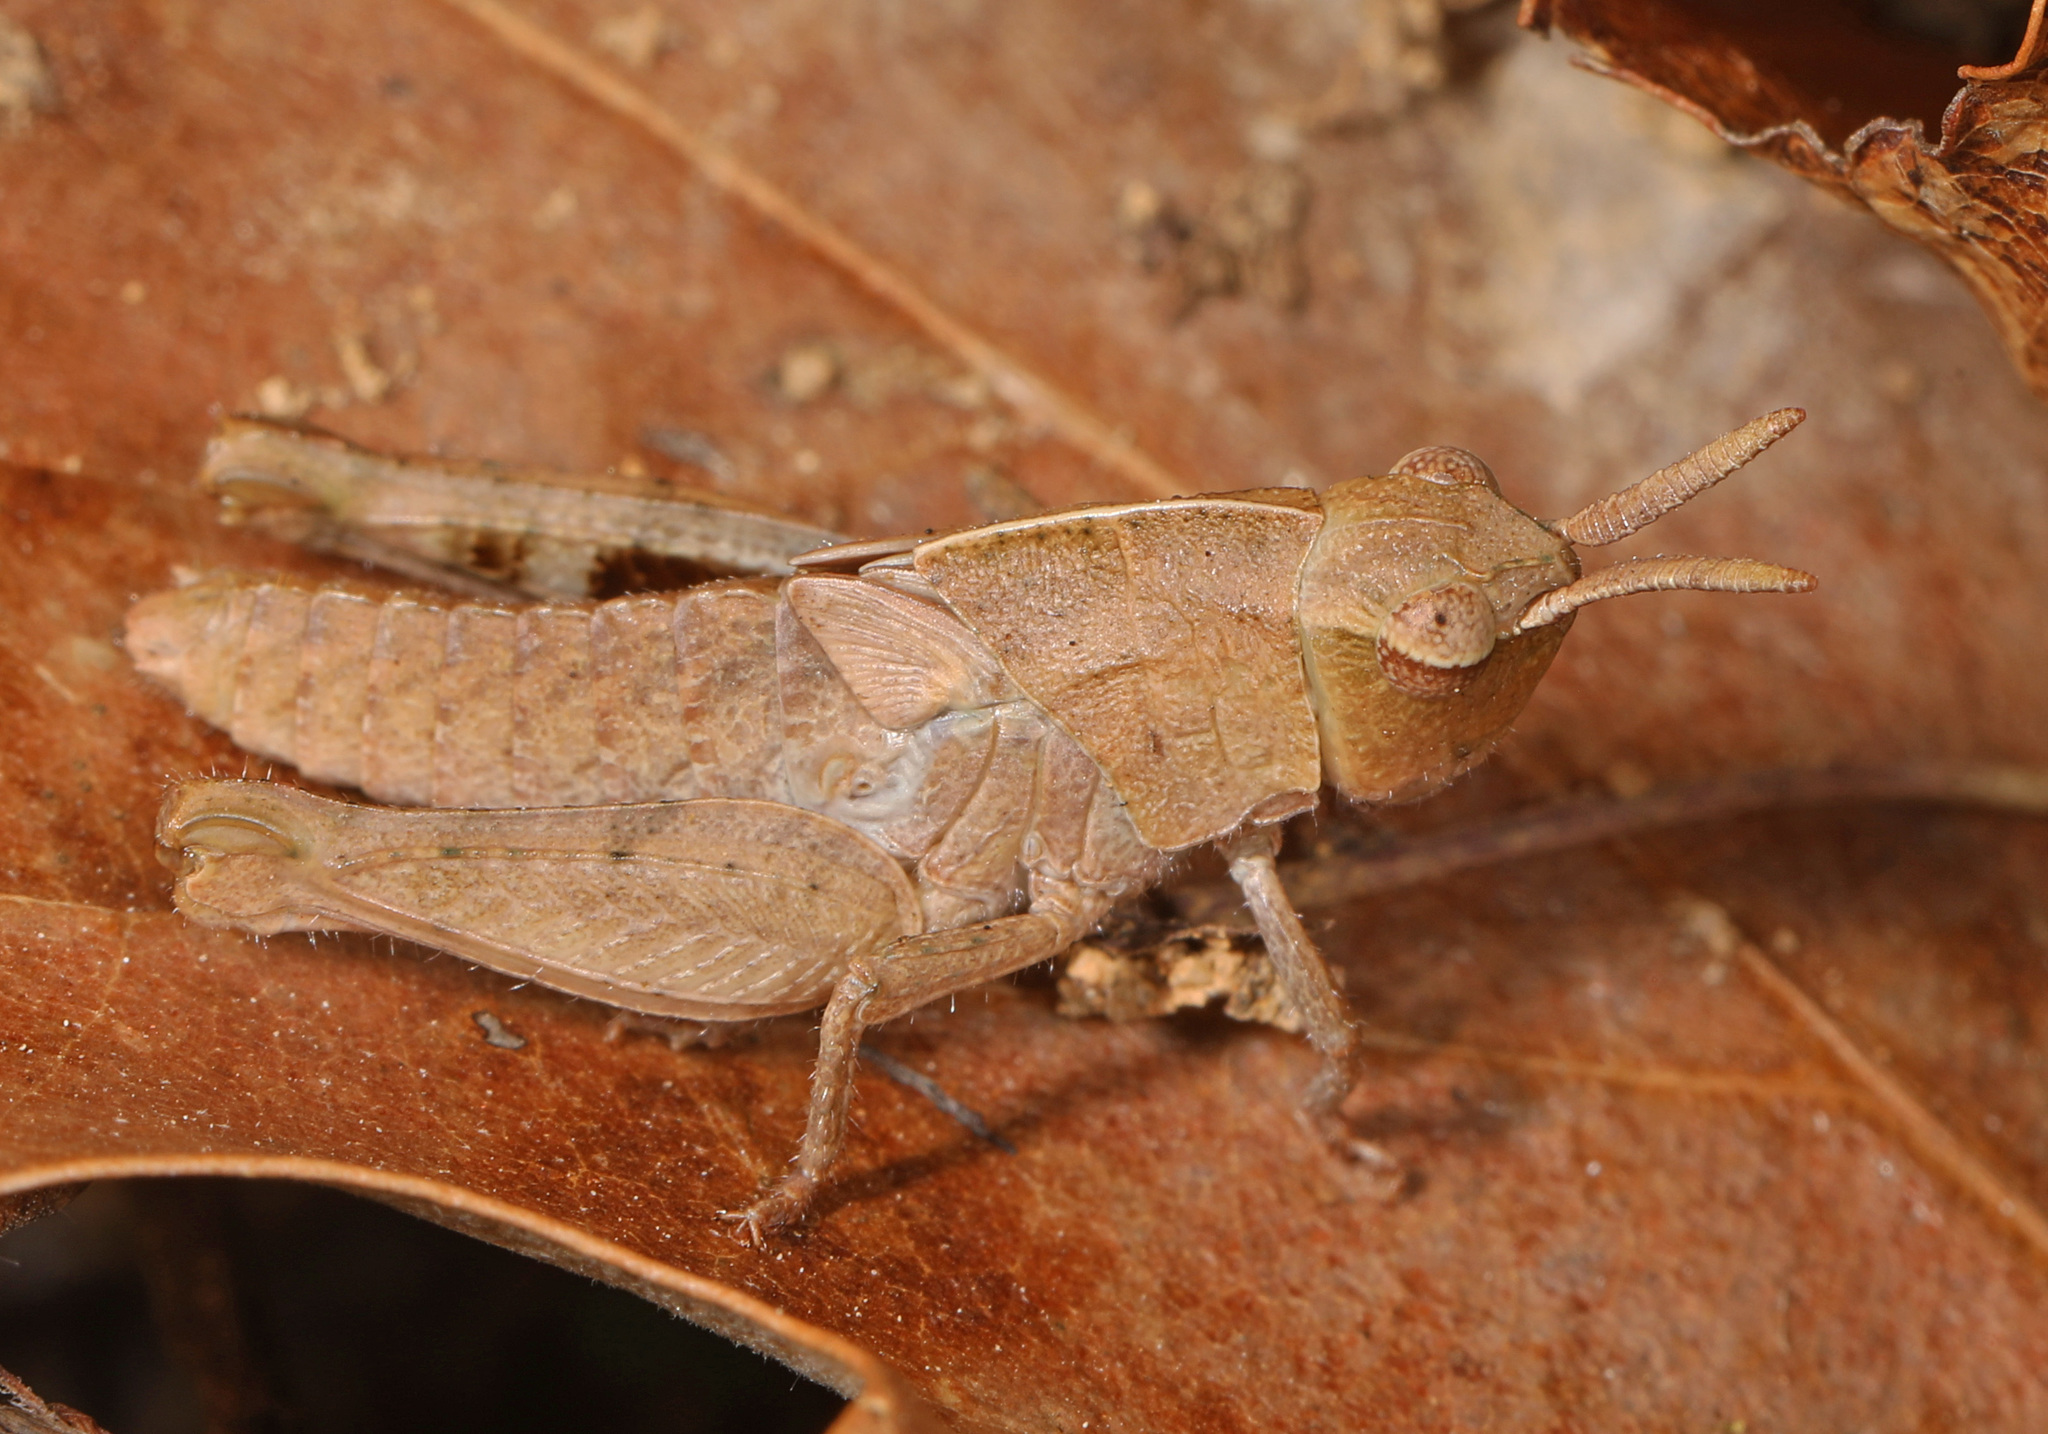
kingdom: Animalia
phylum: Arthropoda
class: Insecta
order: Orthoptera
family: Acrididae
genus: Chortophaga
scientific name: Chortophaga viridifasciata
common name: Green-striped grasshopper
